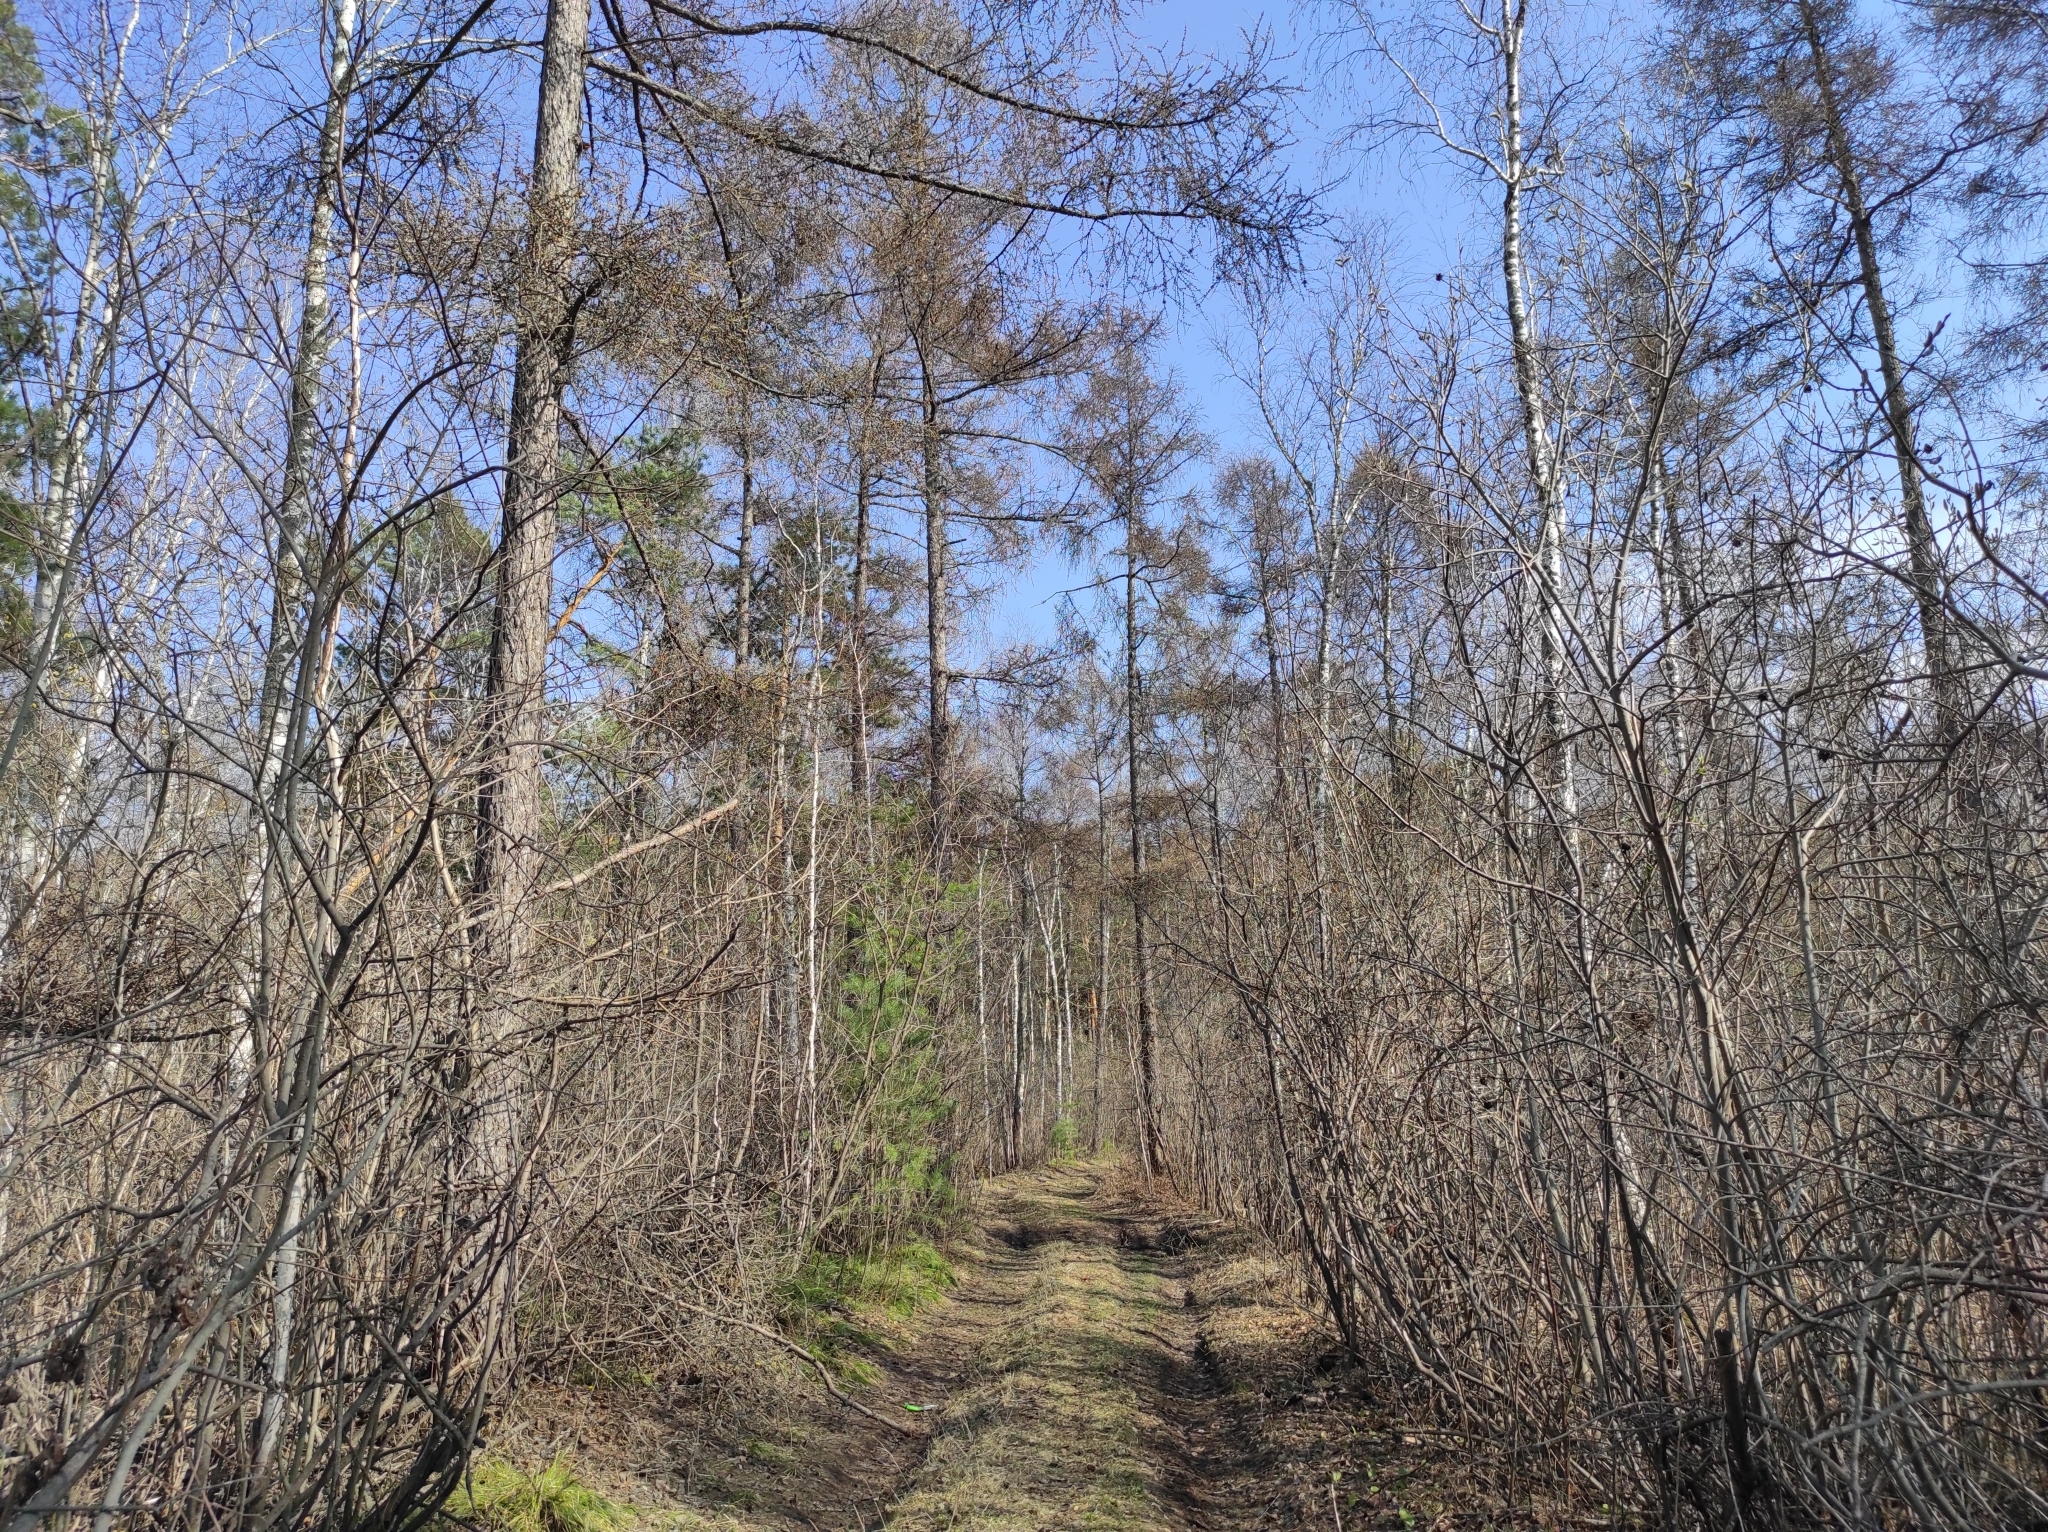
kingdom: Plantae
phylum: Tracheophyta
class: Pinopsida
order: Pinales
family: Pinaceae
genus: Larix
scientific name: Larix sibirica
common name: Siberian larch
